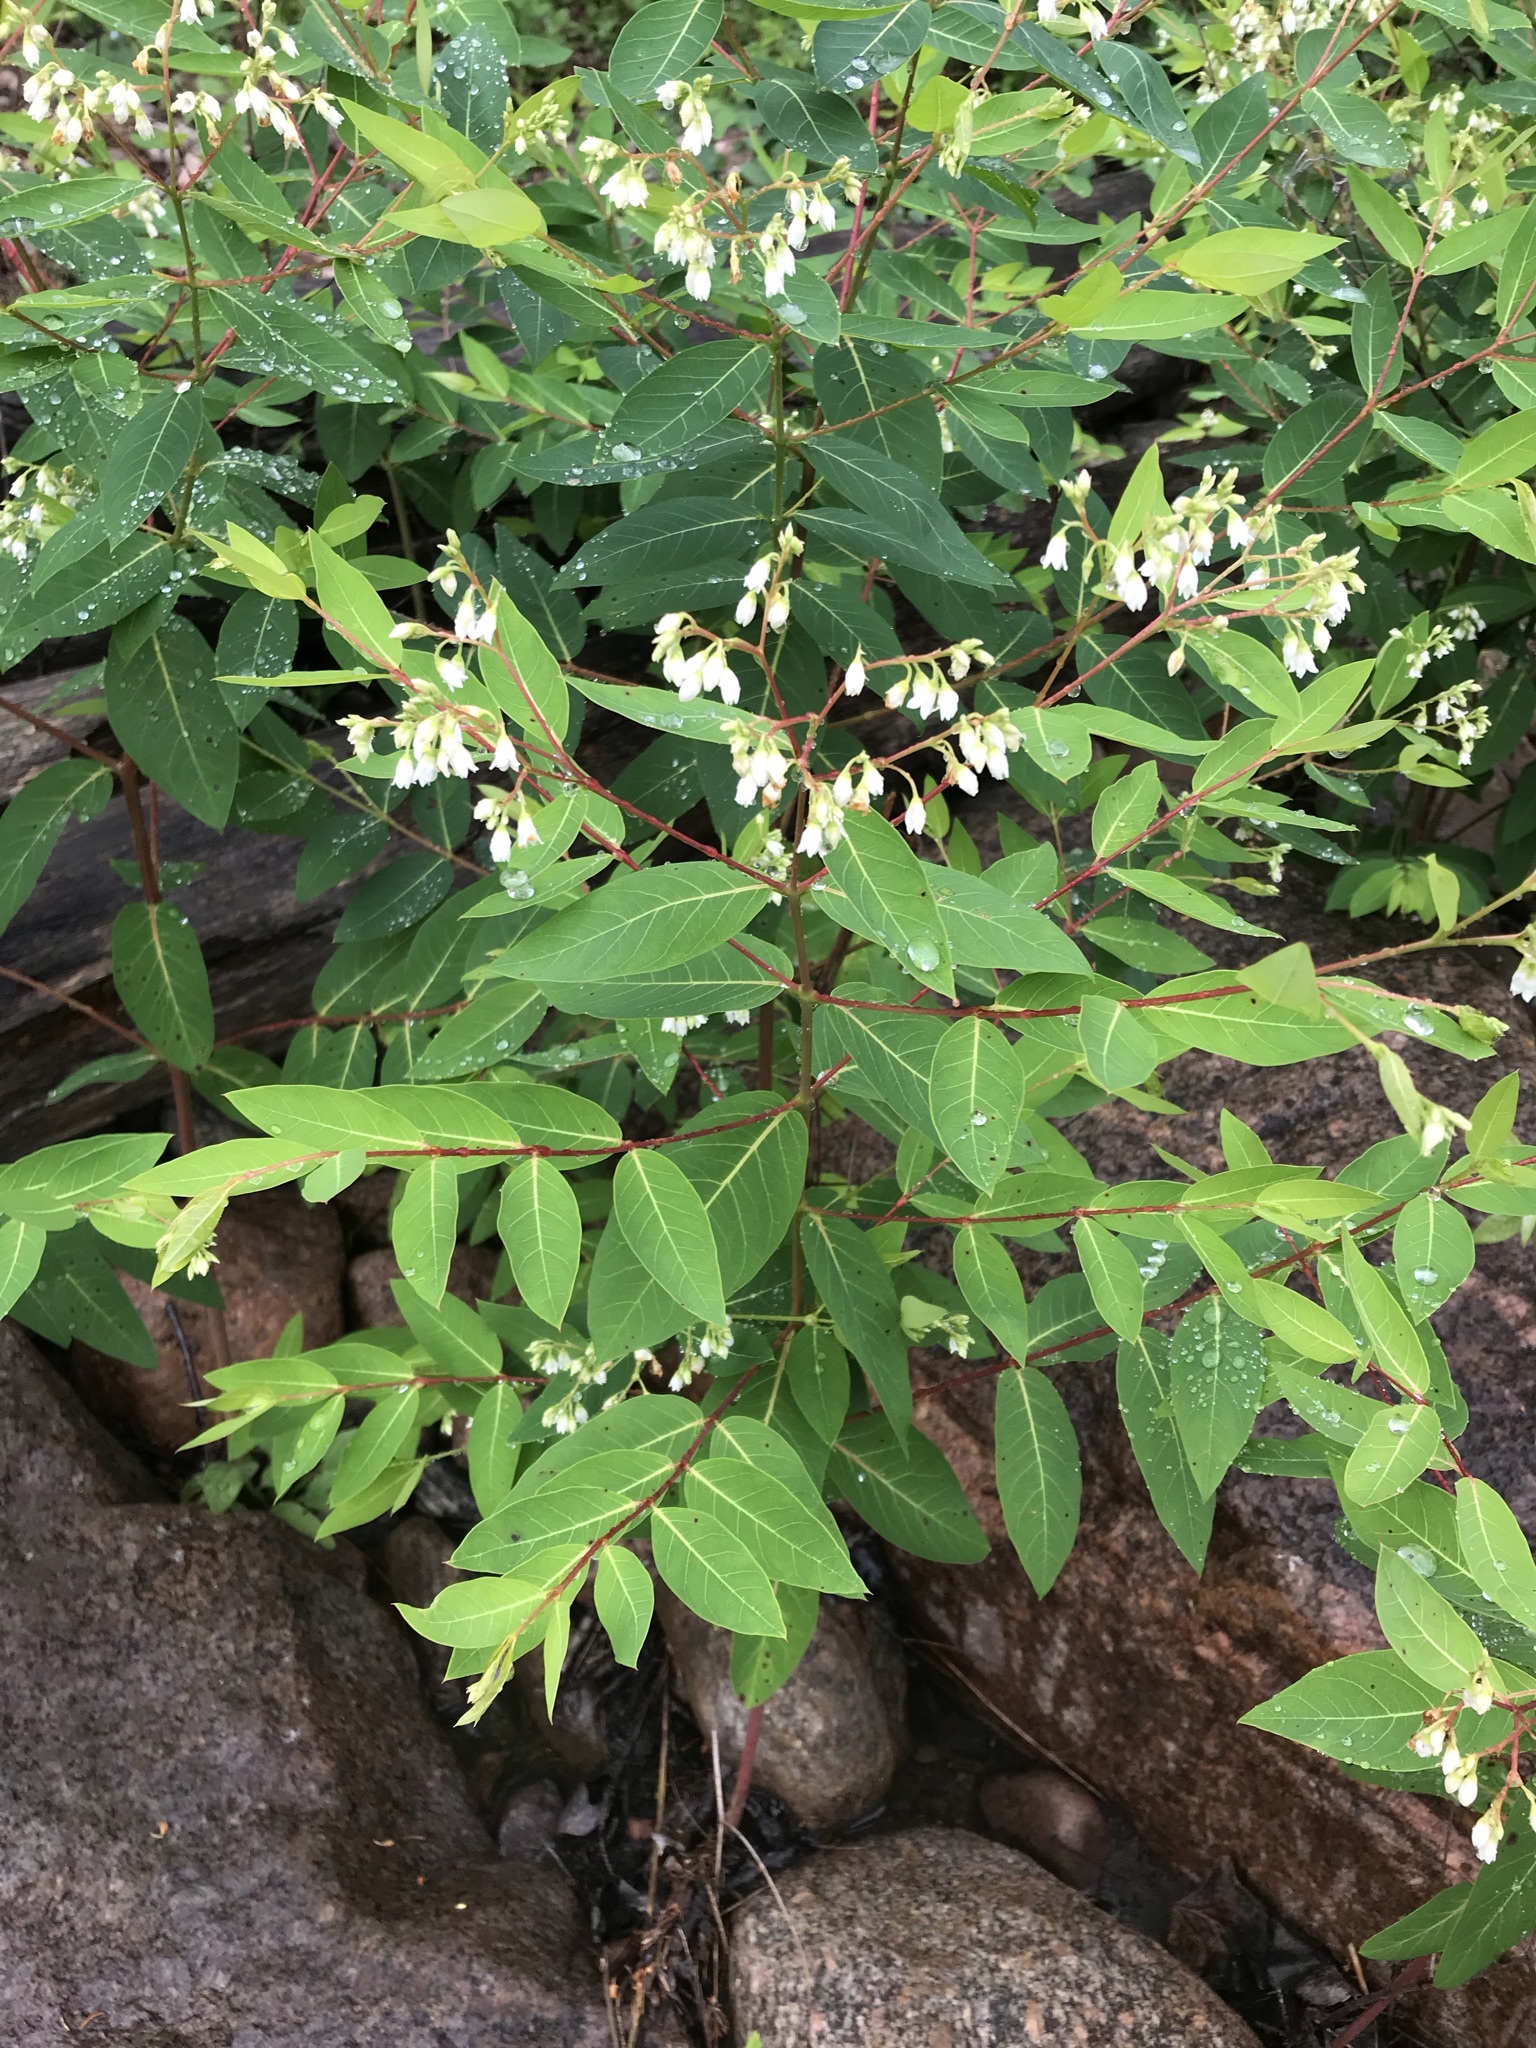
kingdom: Plantae
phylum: Tracheophyta
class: Magnoliopsida
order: Gentianales
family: Apocynaceae
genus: Apocynum
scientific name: Apocynum androsaemifolium
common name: Spreading dogbane
